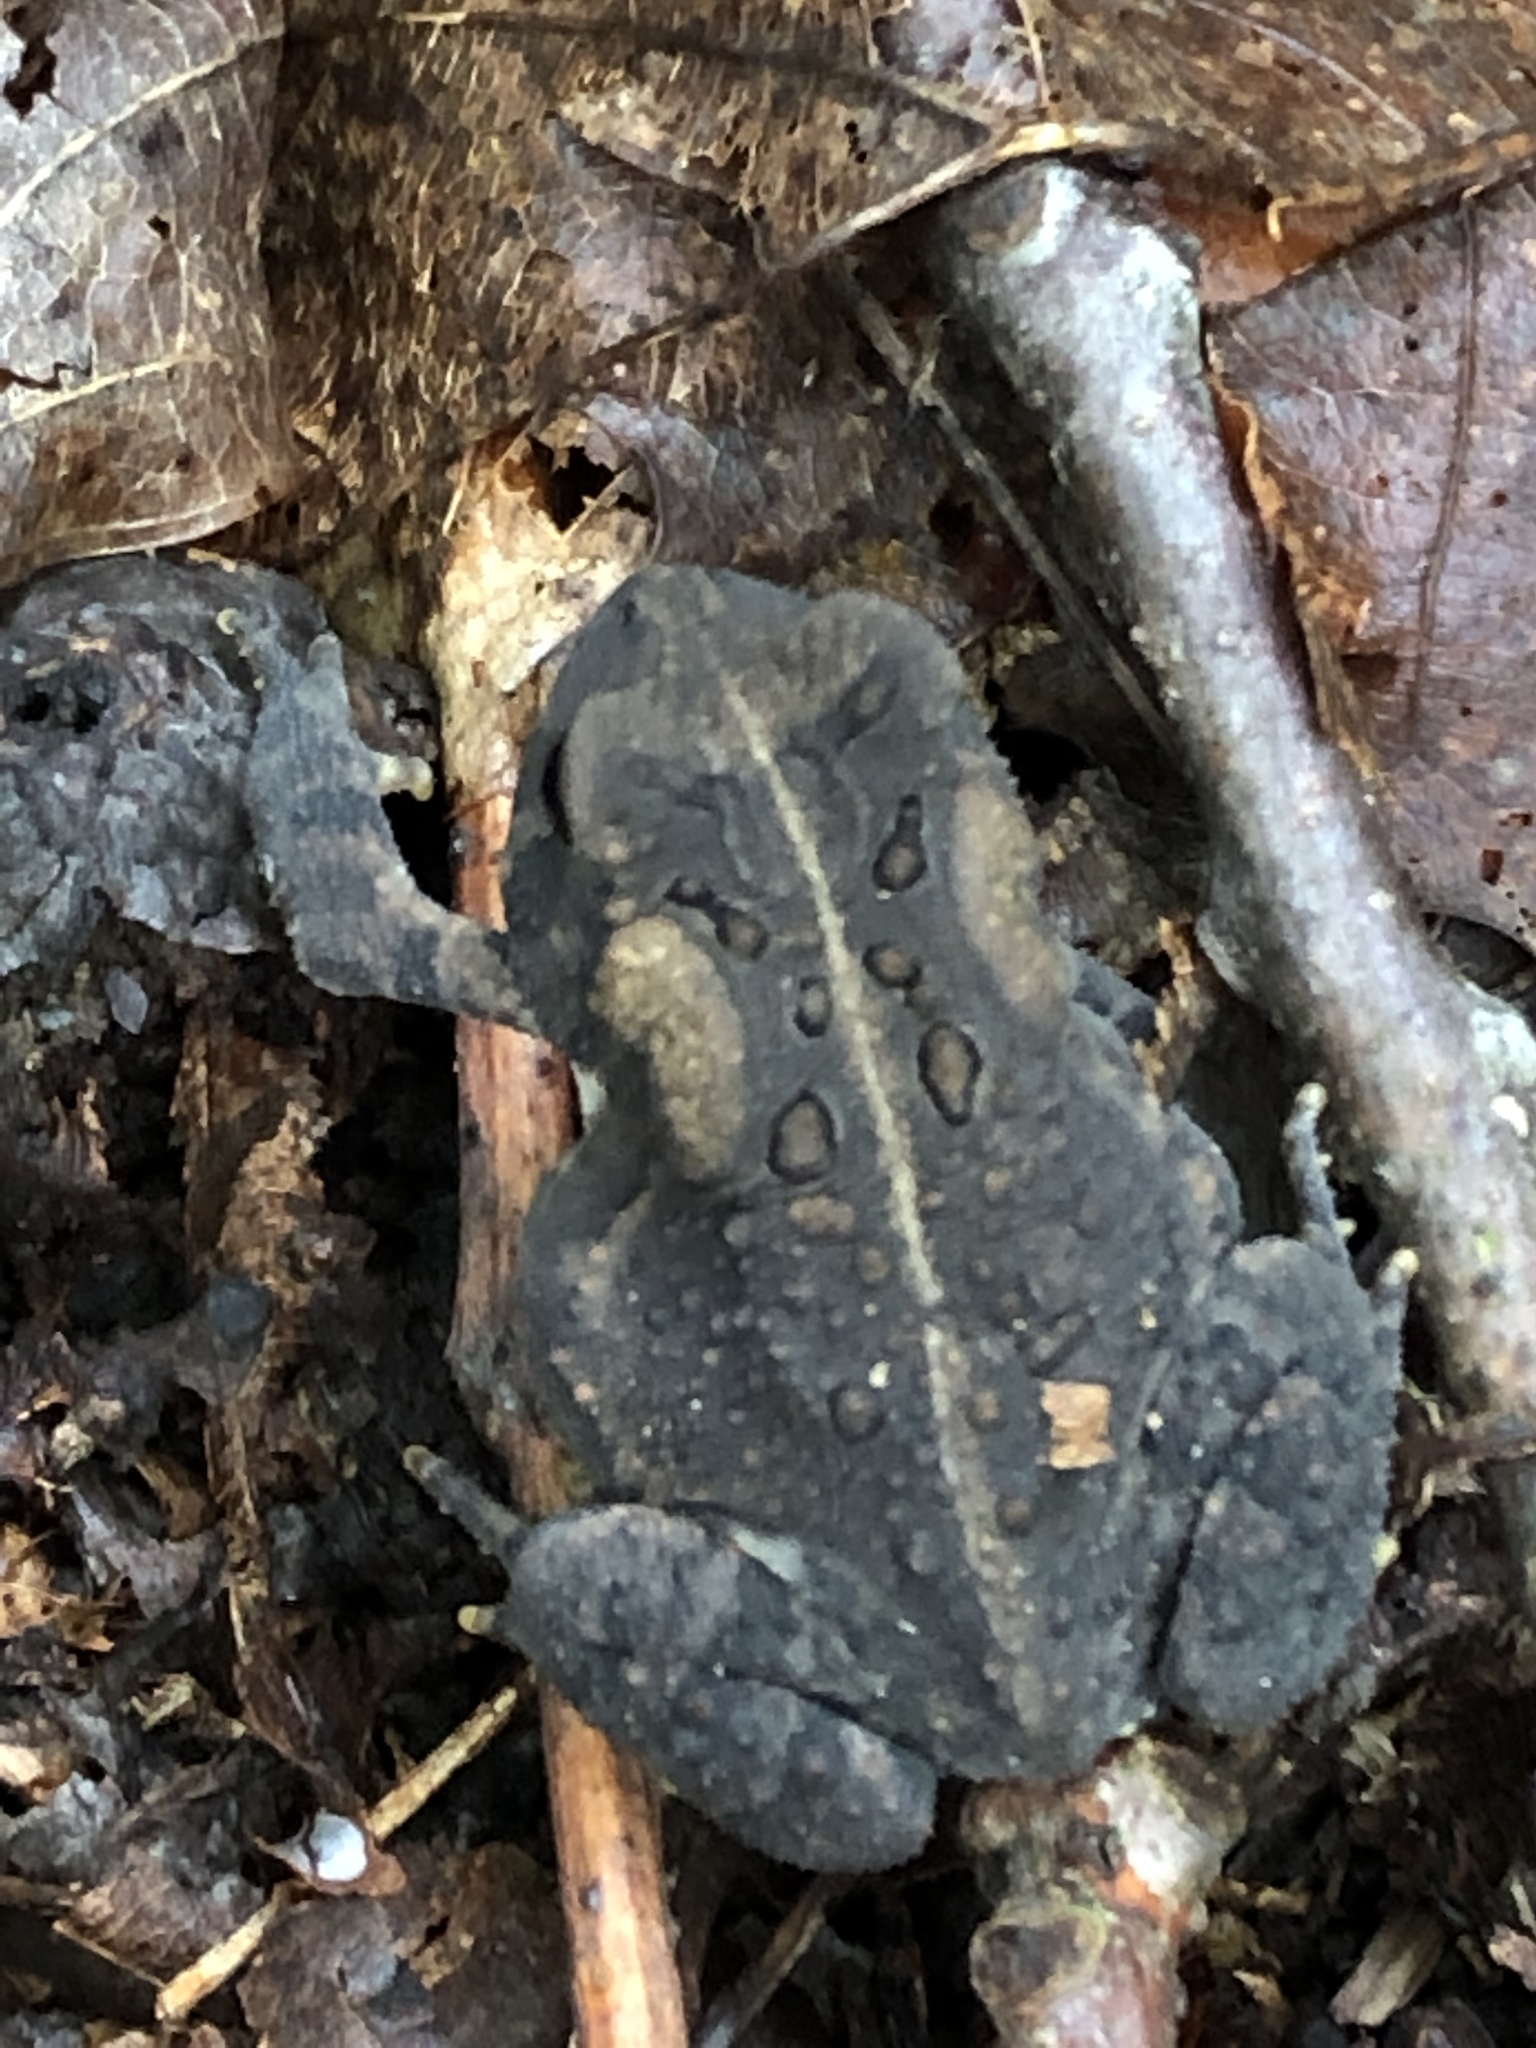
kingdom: Animalia
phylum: Chordata
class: Amphibia
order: Anura
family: Bufonidae
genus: Anaxyrus
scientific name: Anaxyrus americanus
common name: American toad
